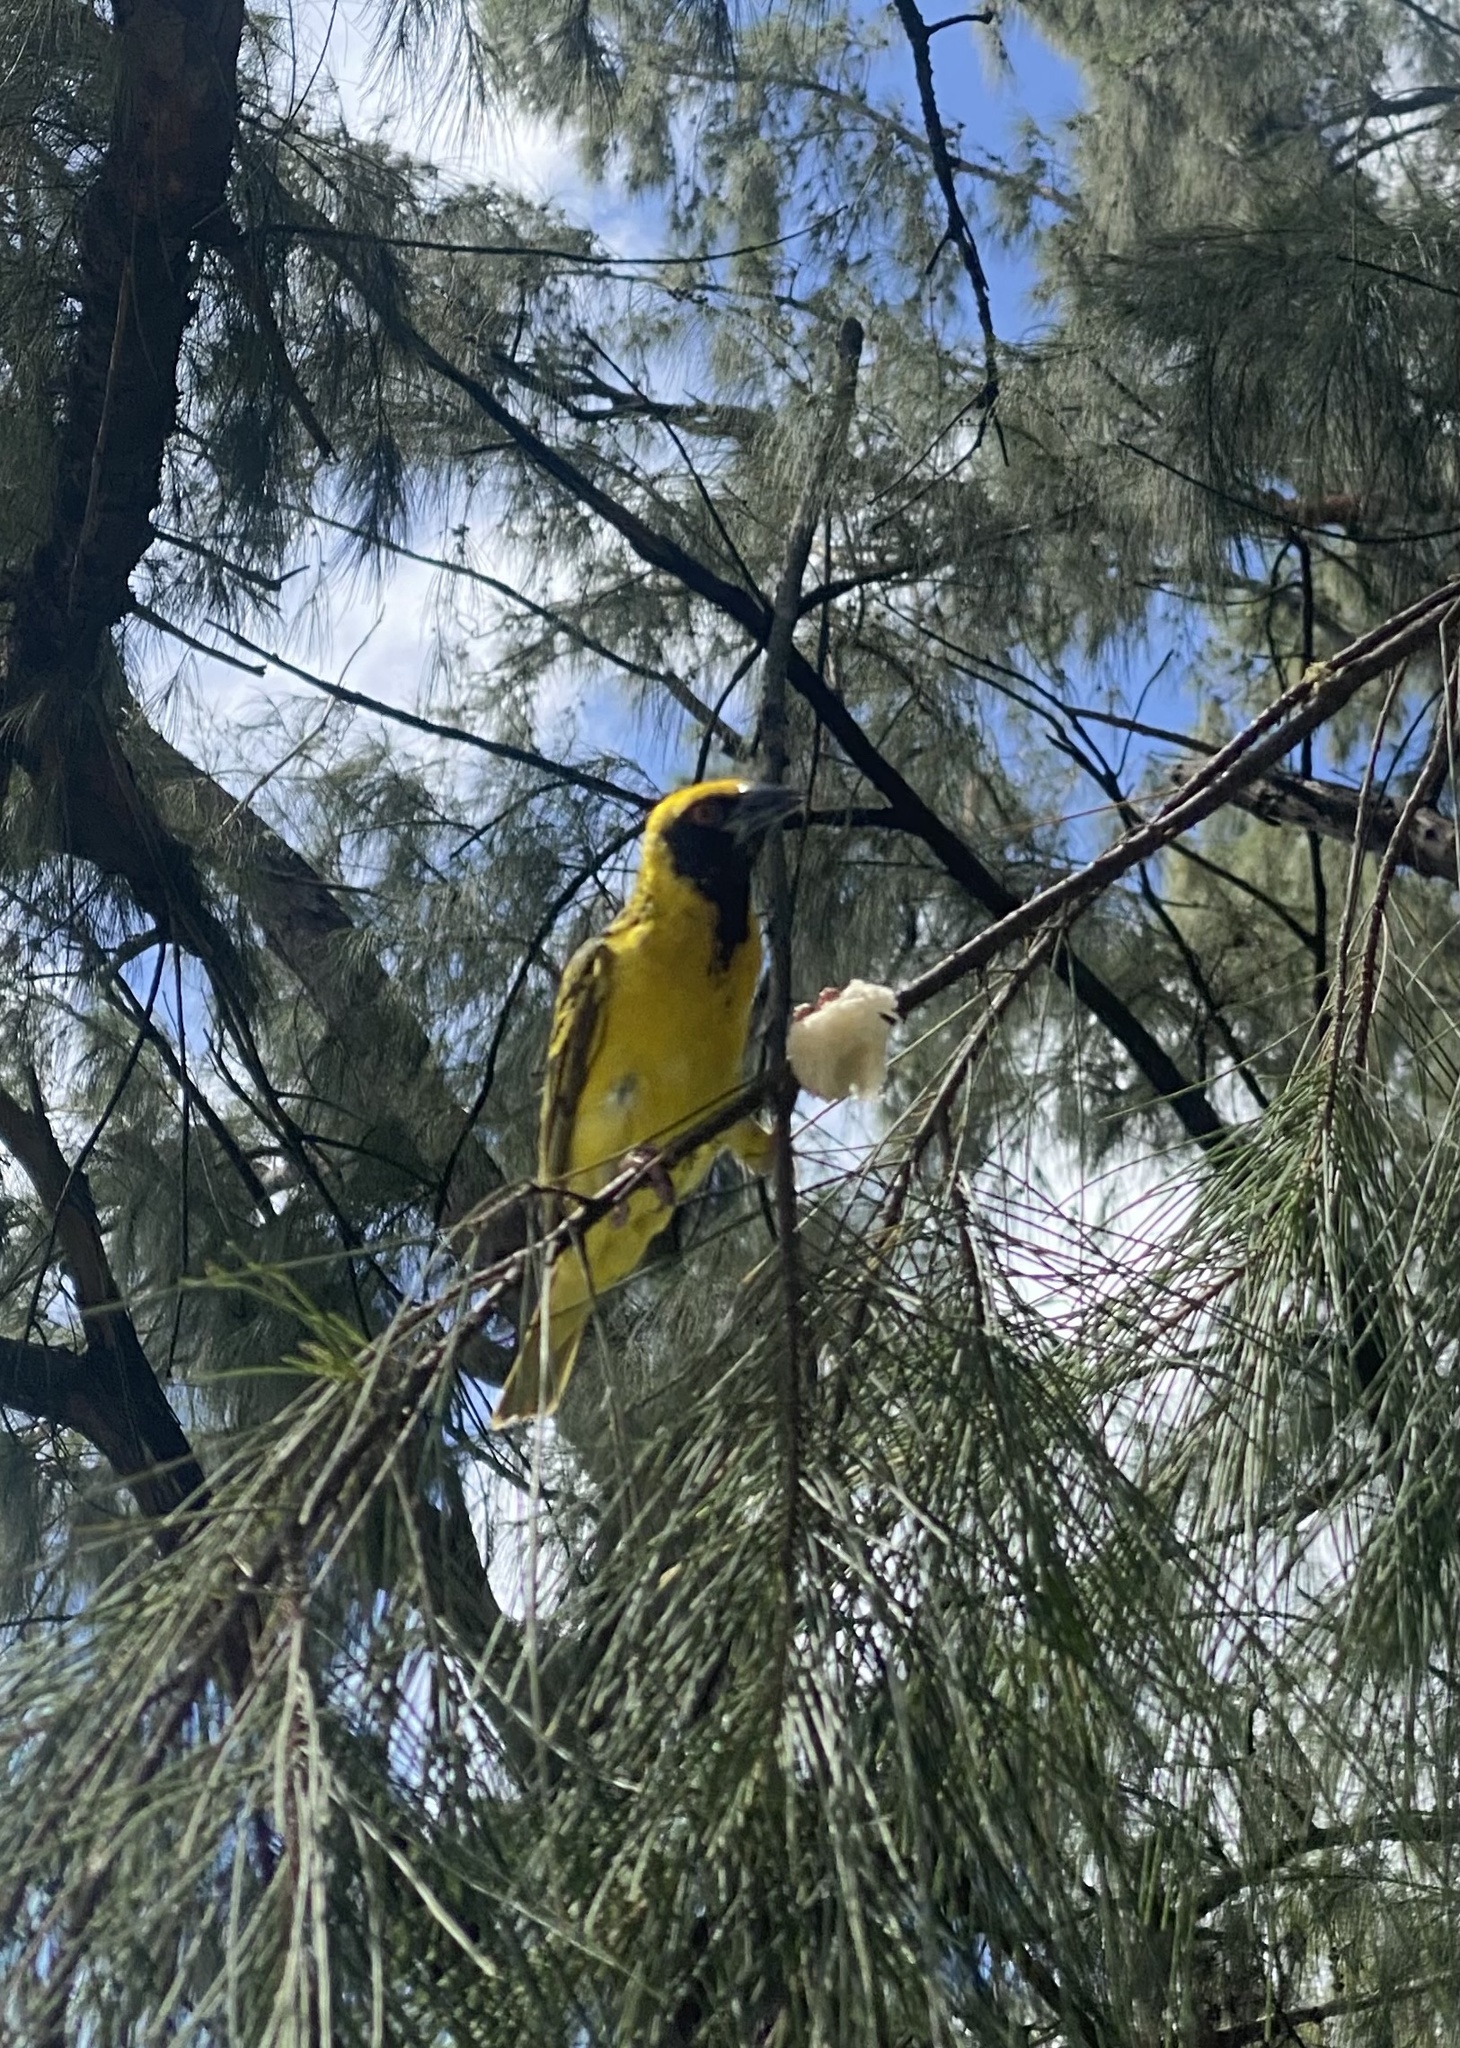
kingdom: Animalia
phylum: Chordata
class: Aves
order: Passeriformes
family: Ploceidae
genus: Ploceus
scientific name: Ploceus cucullatus
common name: Village weaver
